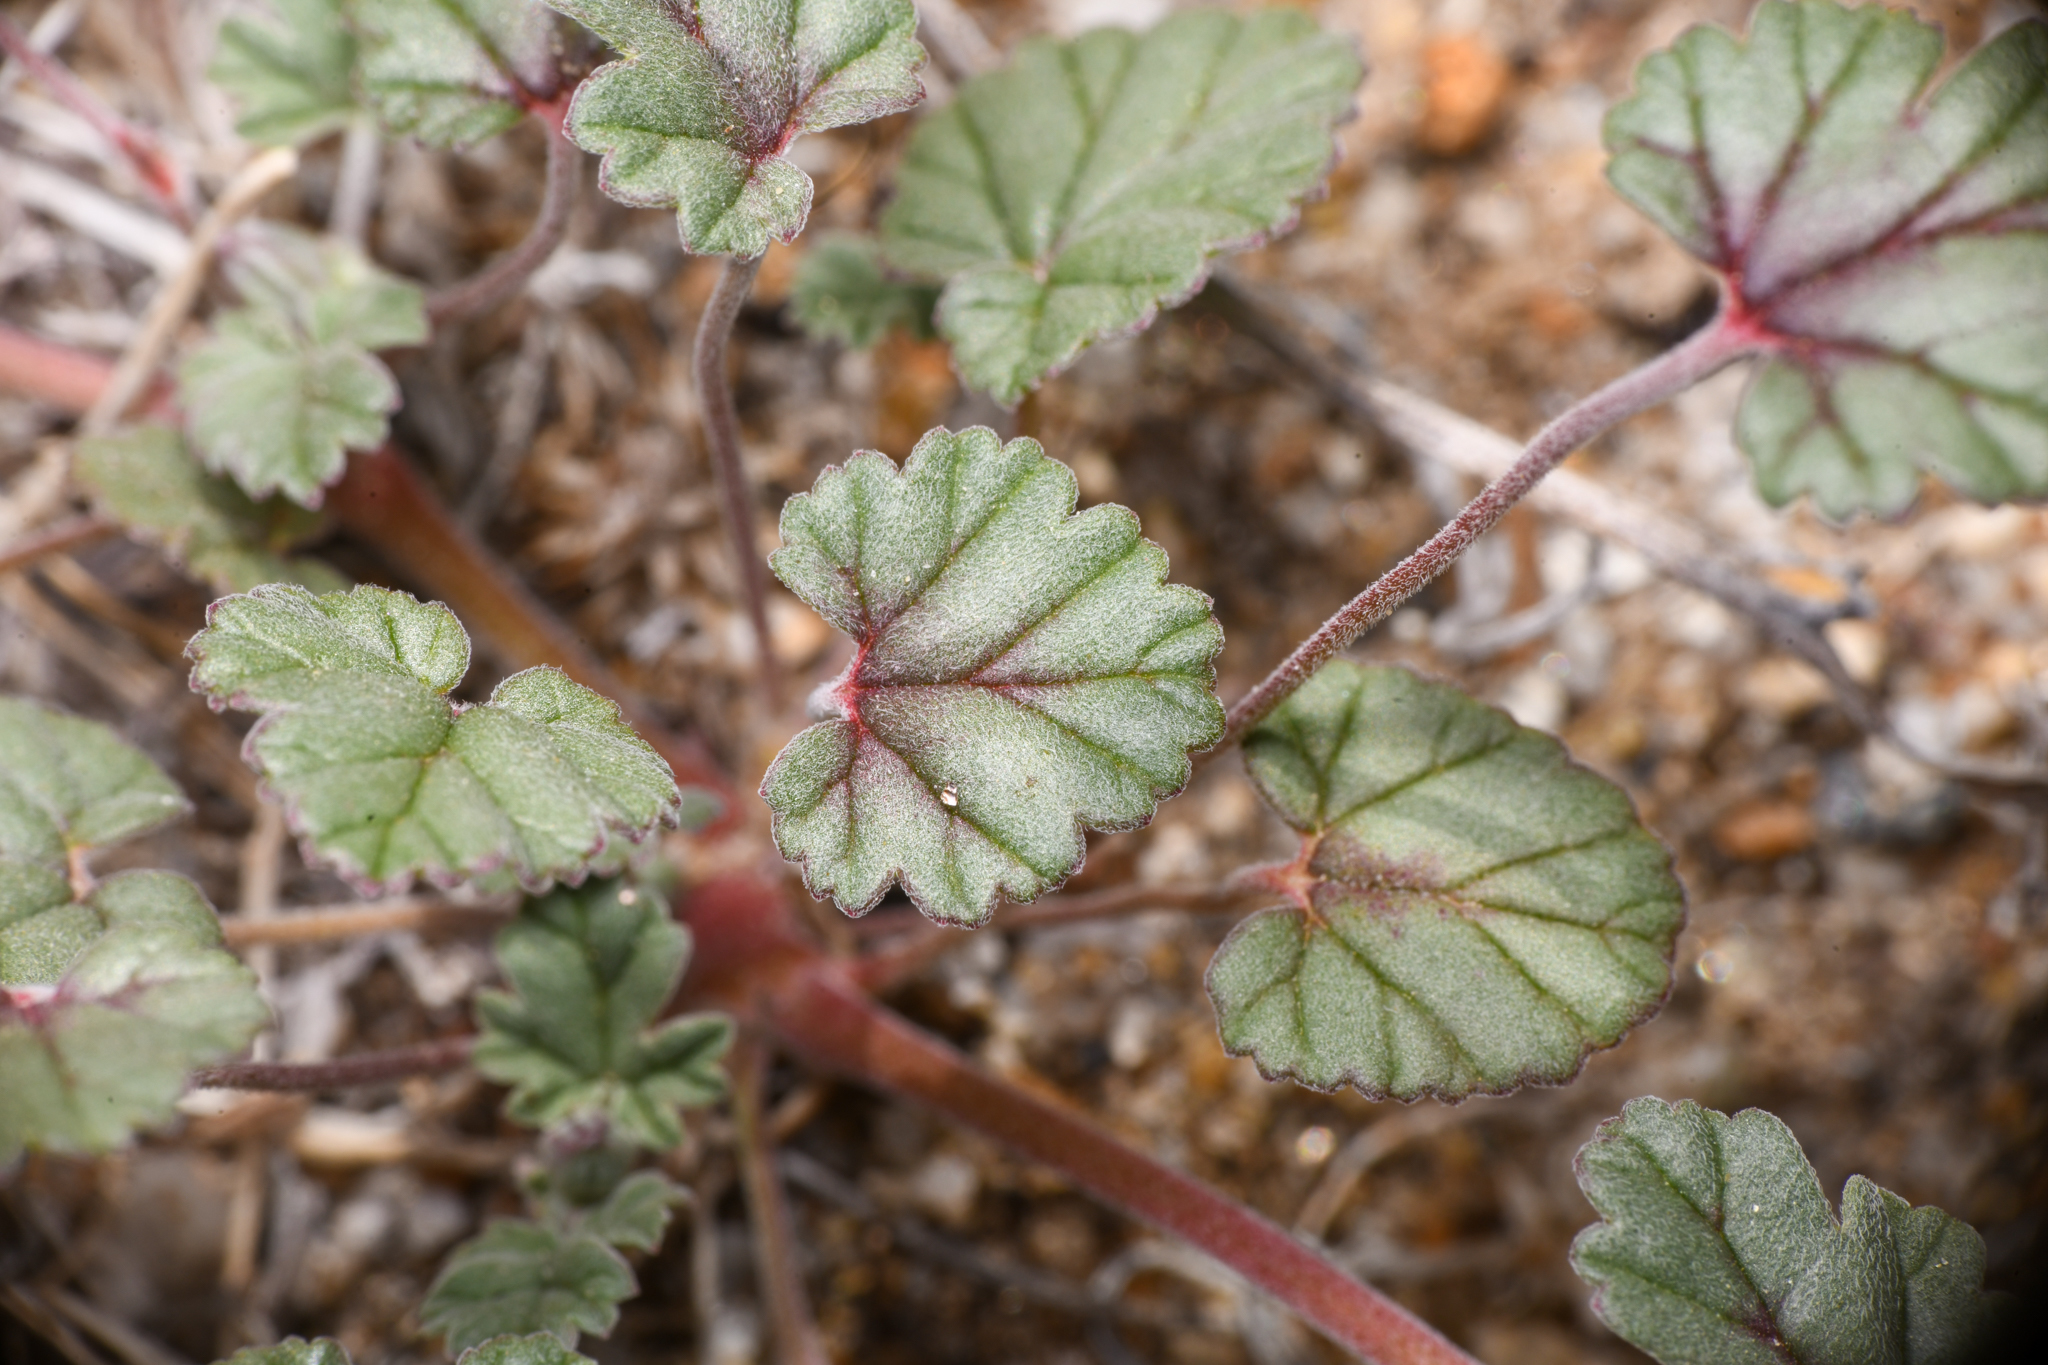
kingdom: Plantae
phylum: Tracheophyta
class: Magnoliopsida
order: Geraniales
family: Geraniaceae
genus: Erodium
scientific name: Erodium texanum
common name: Texas stork's-bill
